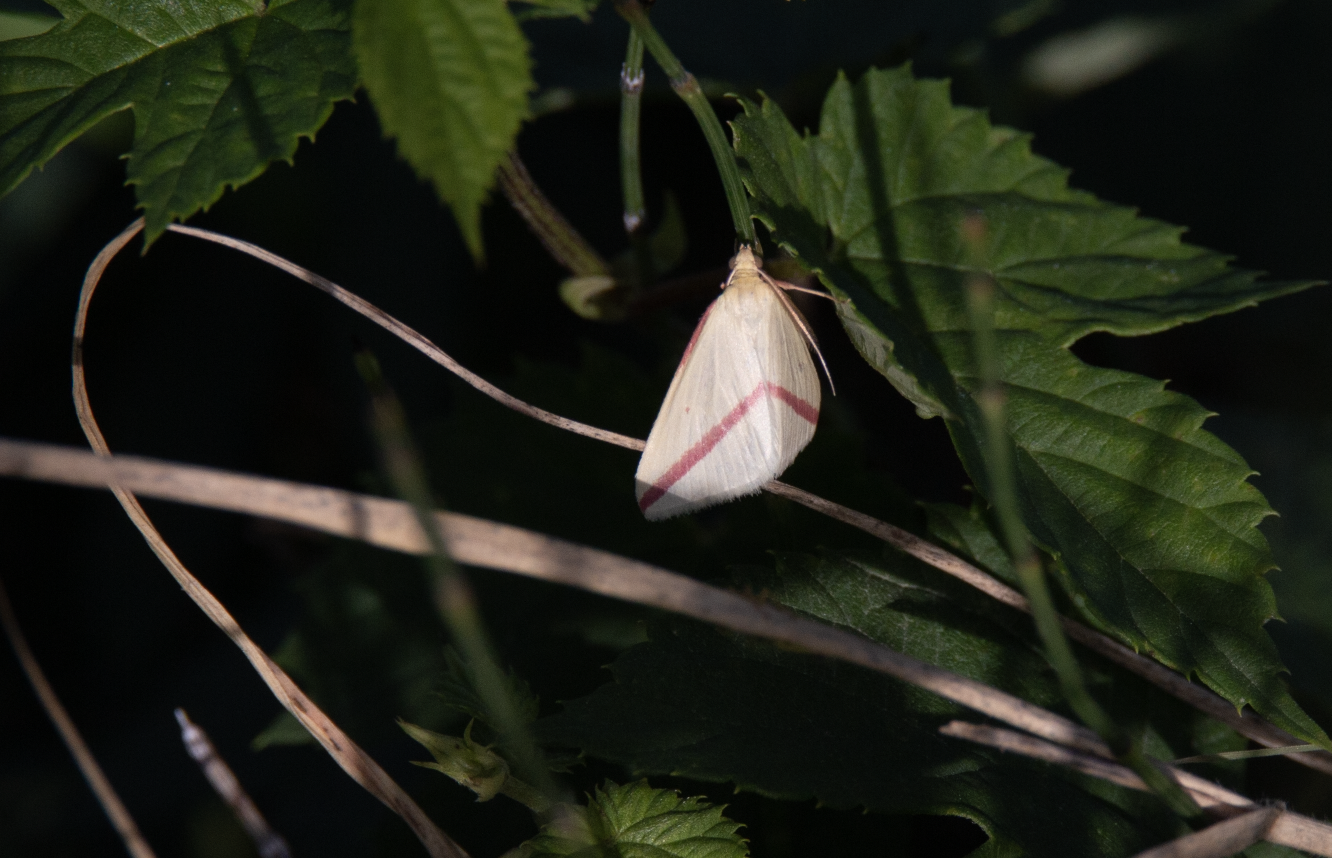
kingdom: Animalia
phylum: Arthropoda
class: Insecta
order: Lepidoptera
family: Geometridae
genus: Rhodometra
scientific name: Rhodometra sacraria
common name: Vestal
